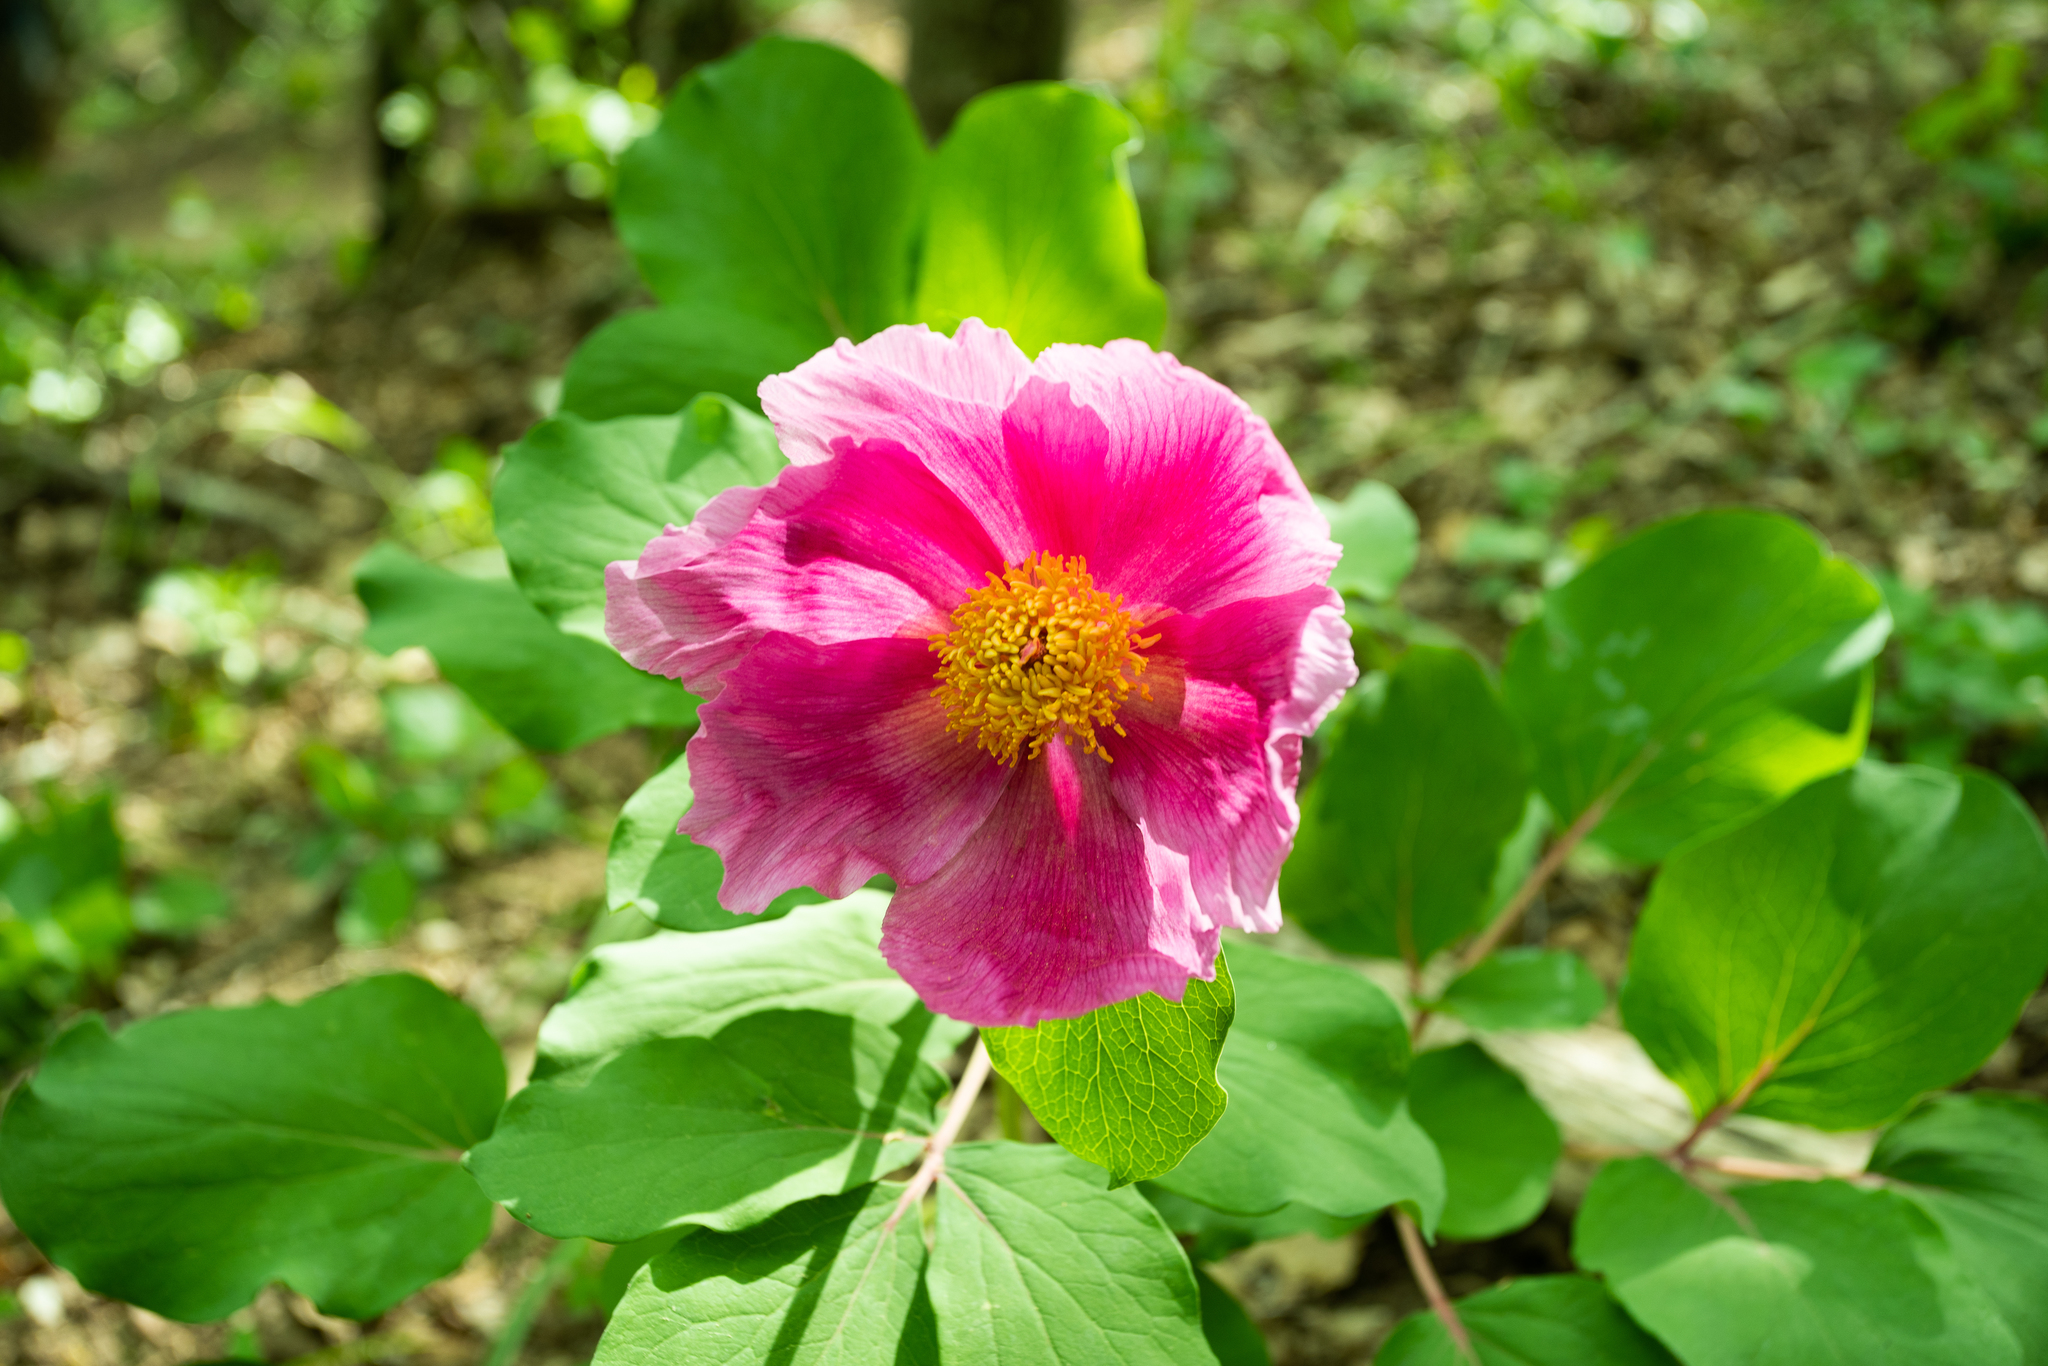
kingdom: Plantae
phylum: Tracheophyta
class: Magnoliopsida
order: Saxifragales
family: Paeoniaceae
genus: Paeonia
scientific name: Paeonia daurica
